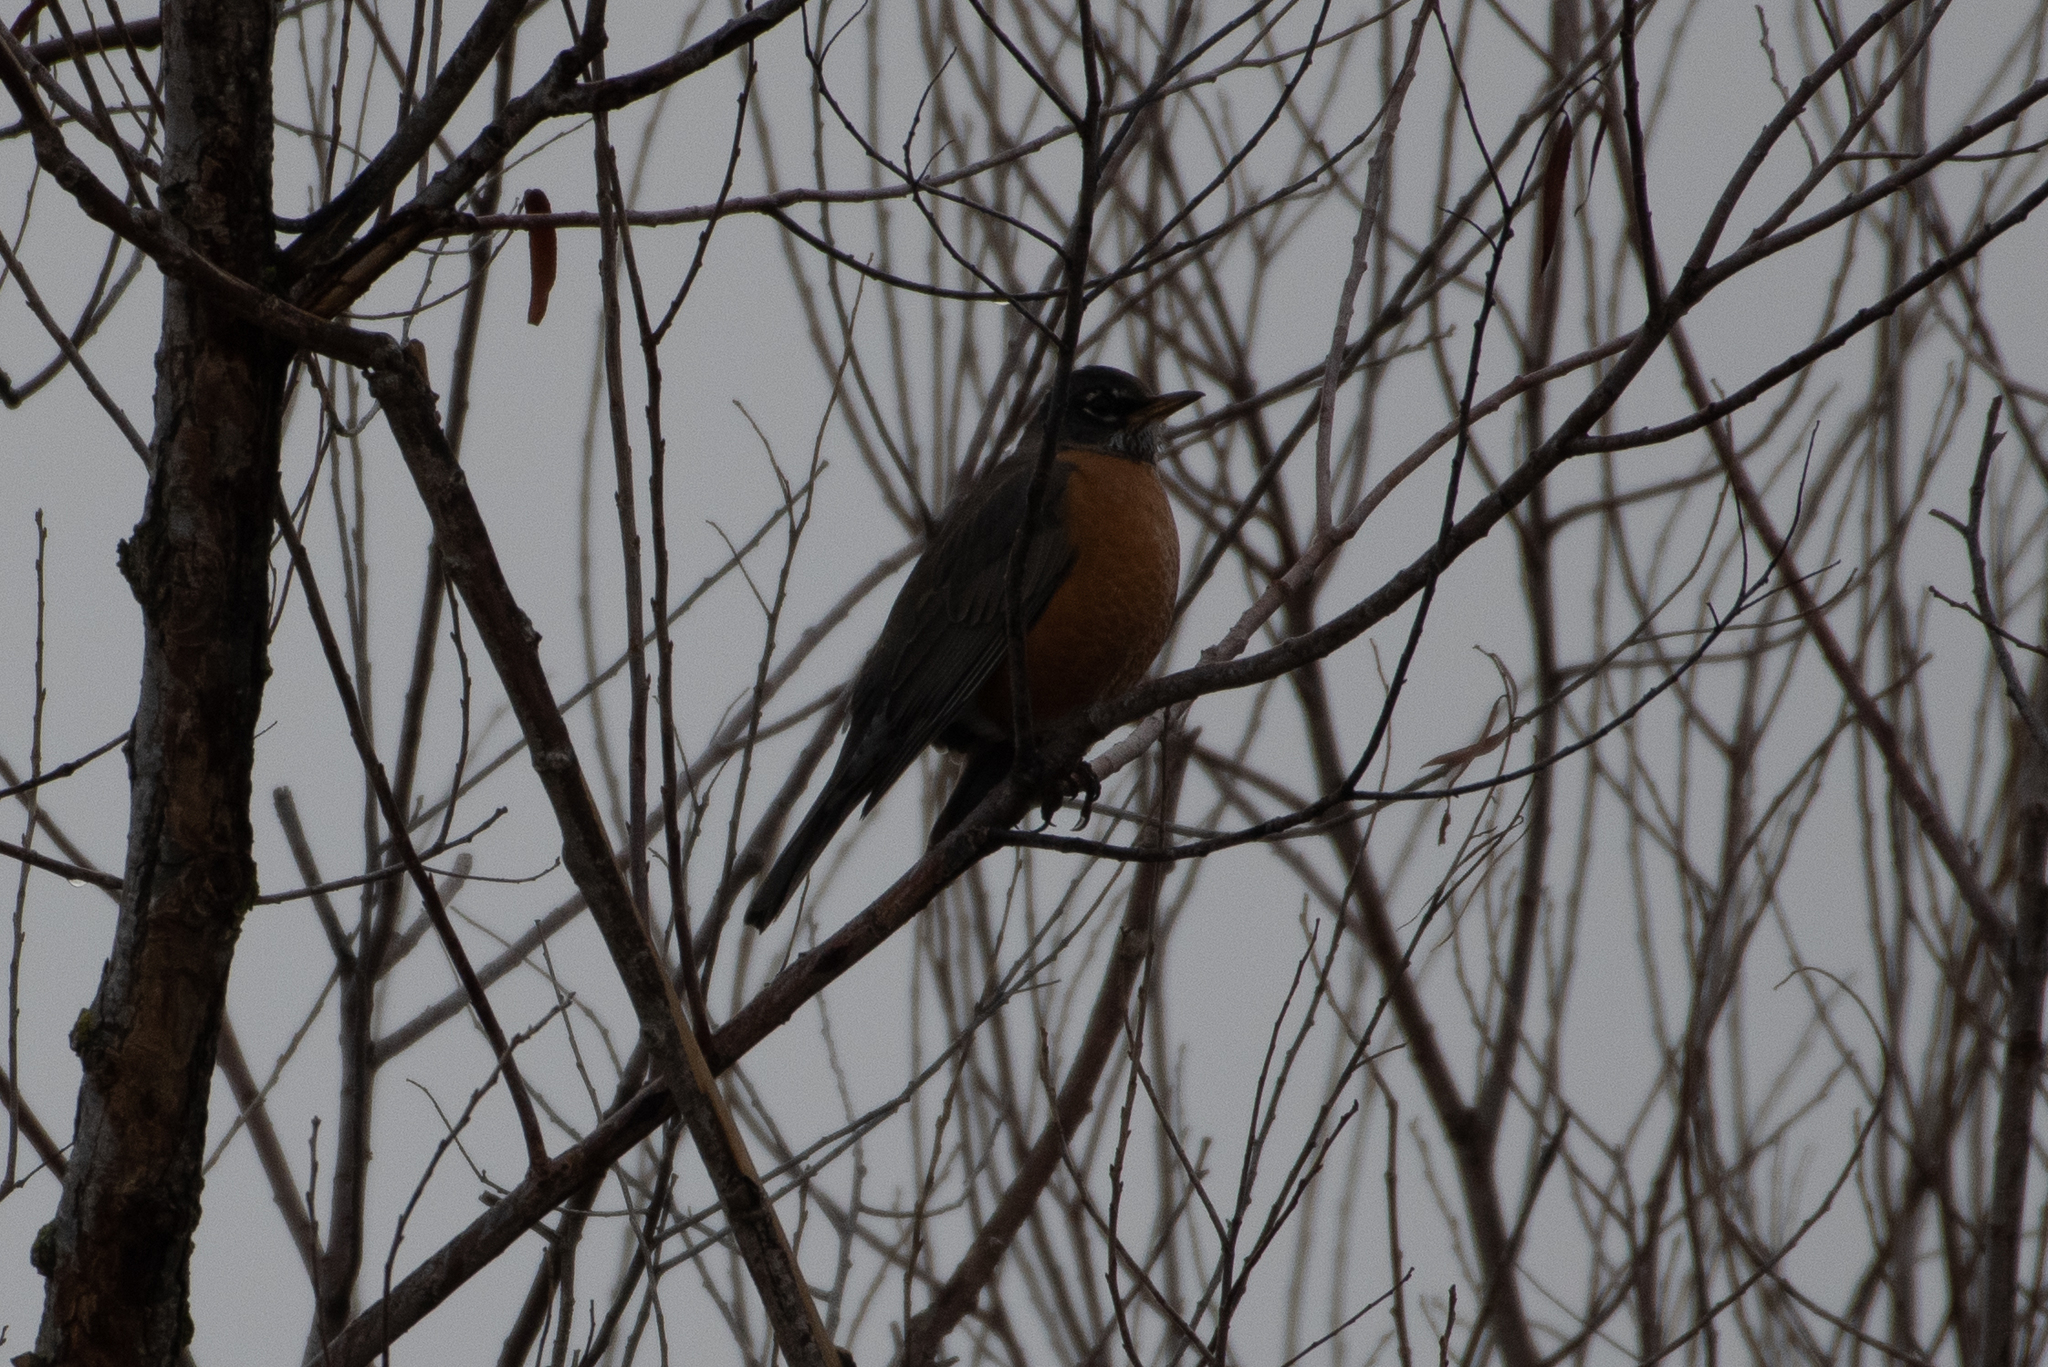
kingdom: Animalia
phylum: Chordata
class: Aves
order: Passeriformes
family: Turdidae
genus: Turdus
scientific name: Turdus migratorius
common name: American robin
